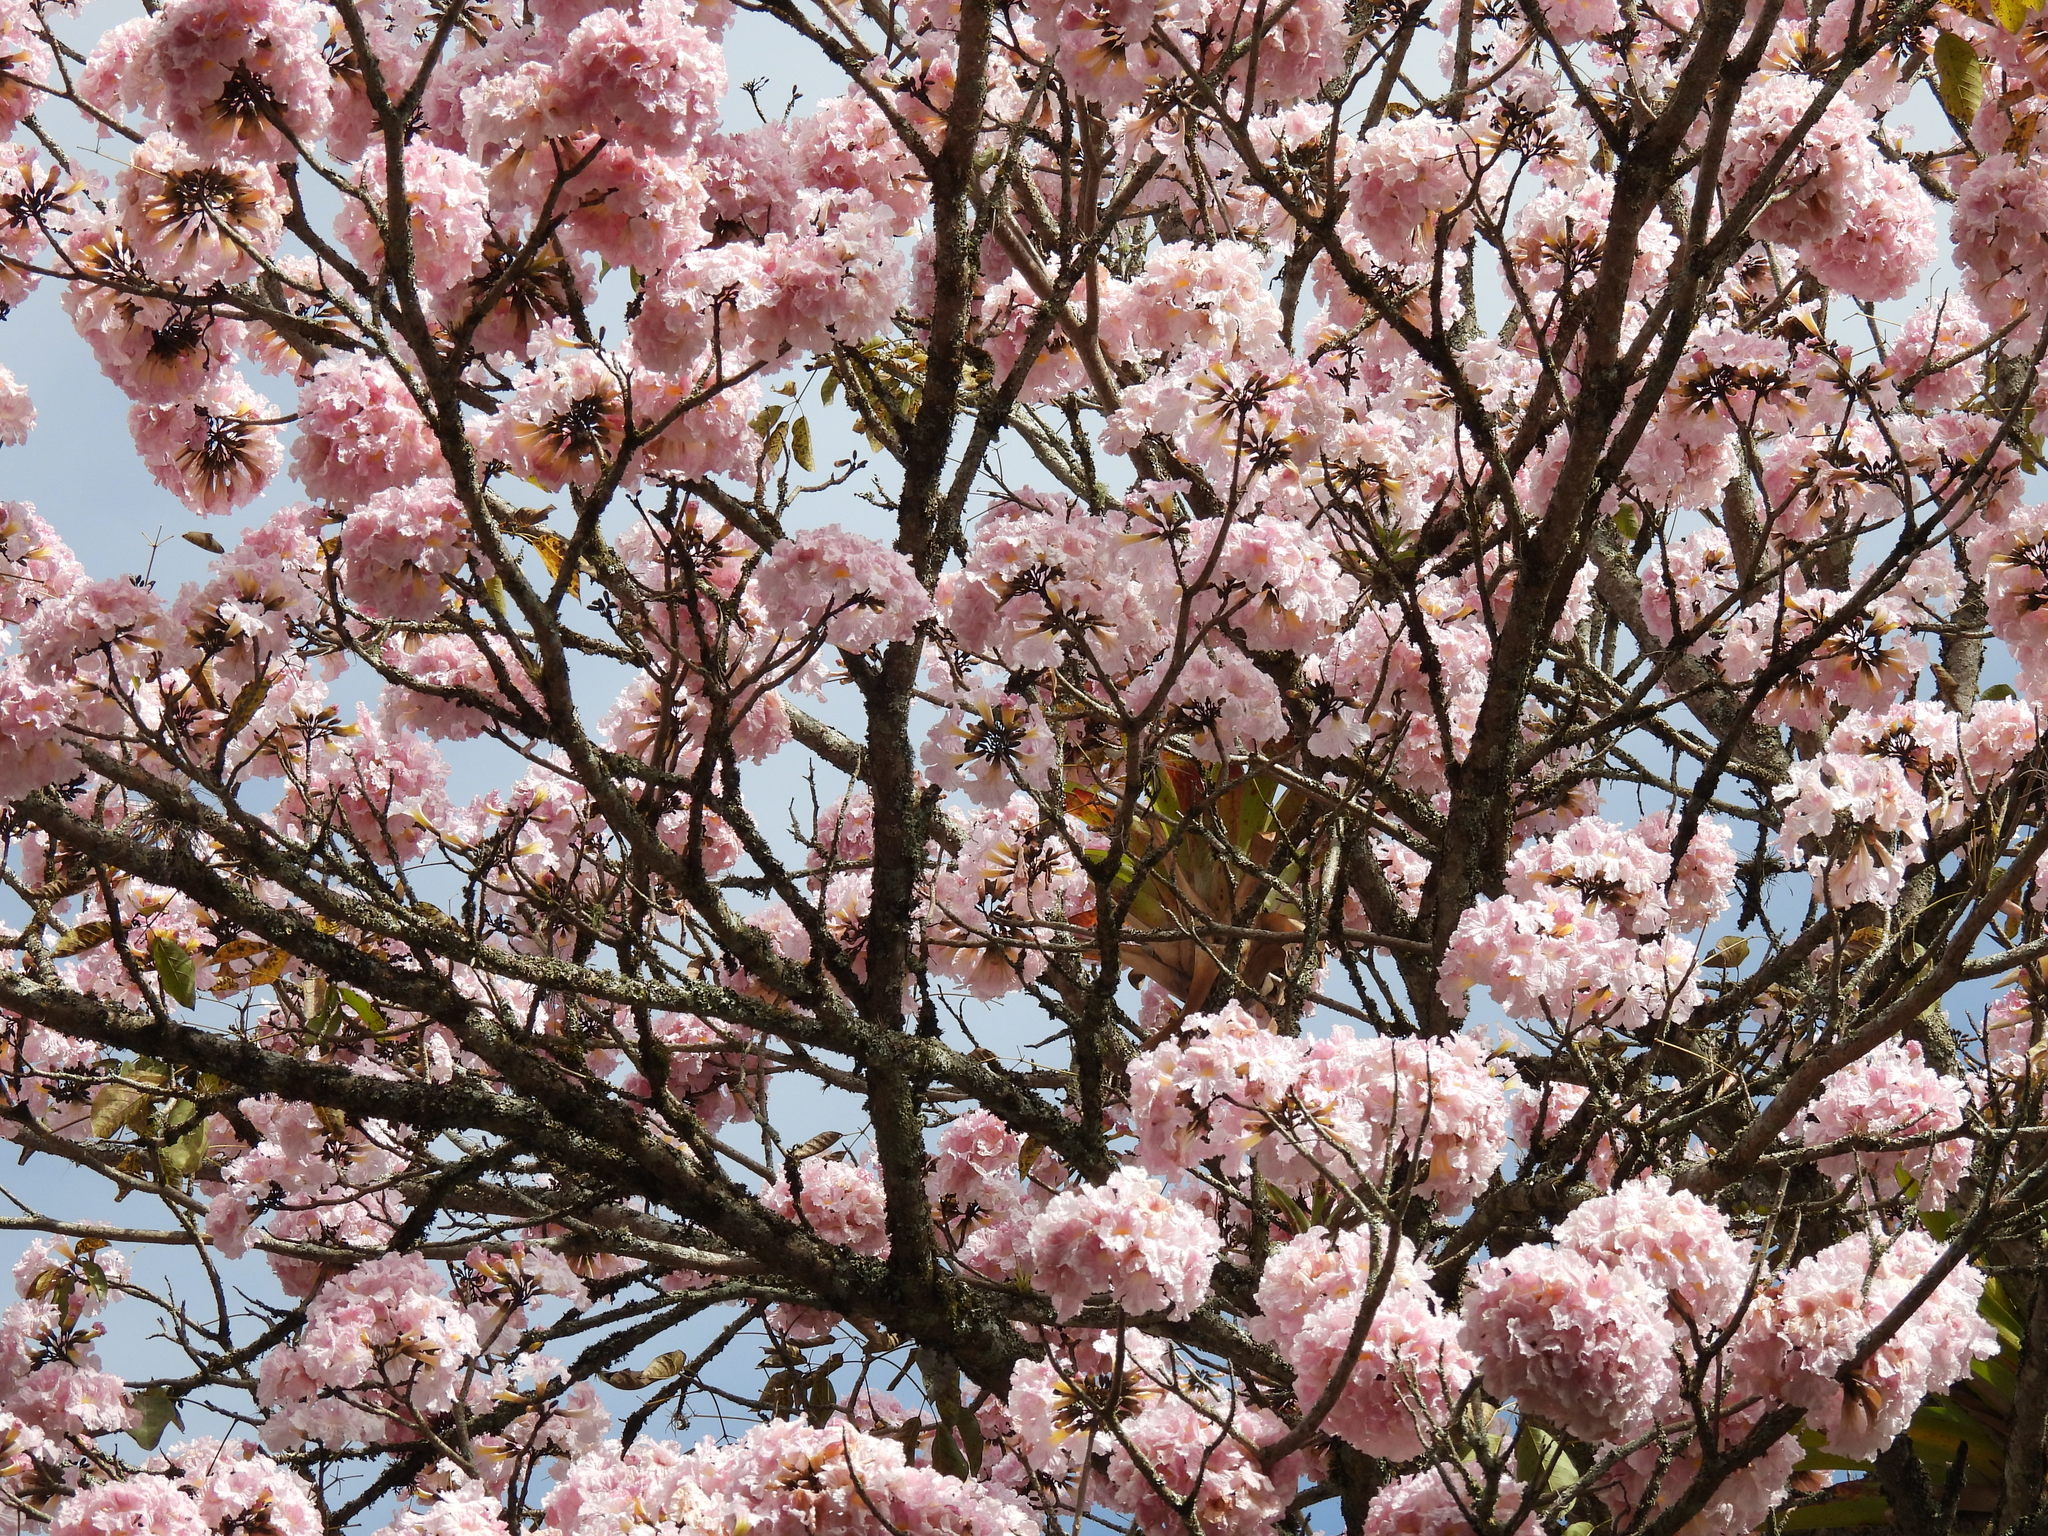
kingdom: Plantae
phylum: Tracheophyta
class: Magnoliopsida
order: Lamiales
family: Bignoniaceae
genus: Tabebuia
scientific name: Tabebuia rosea
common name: Pink poui
